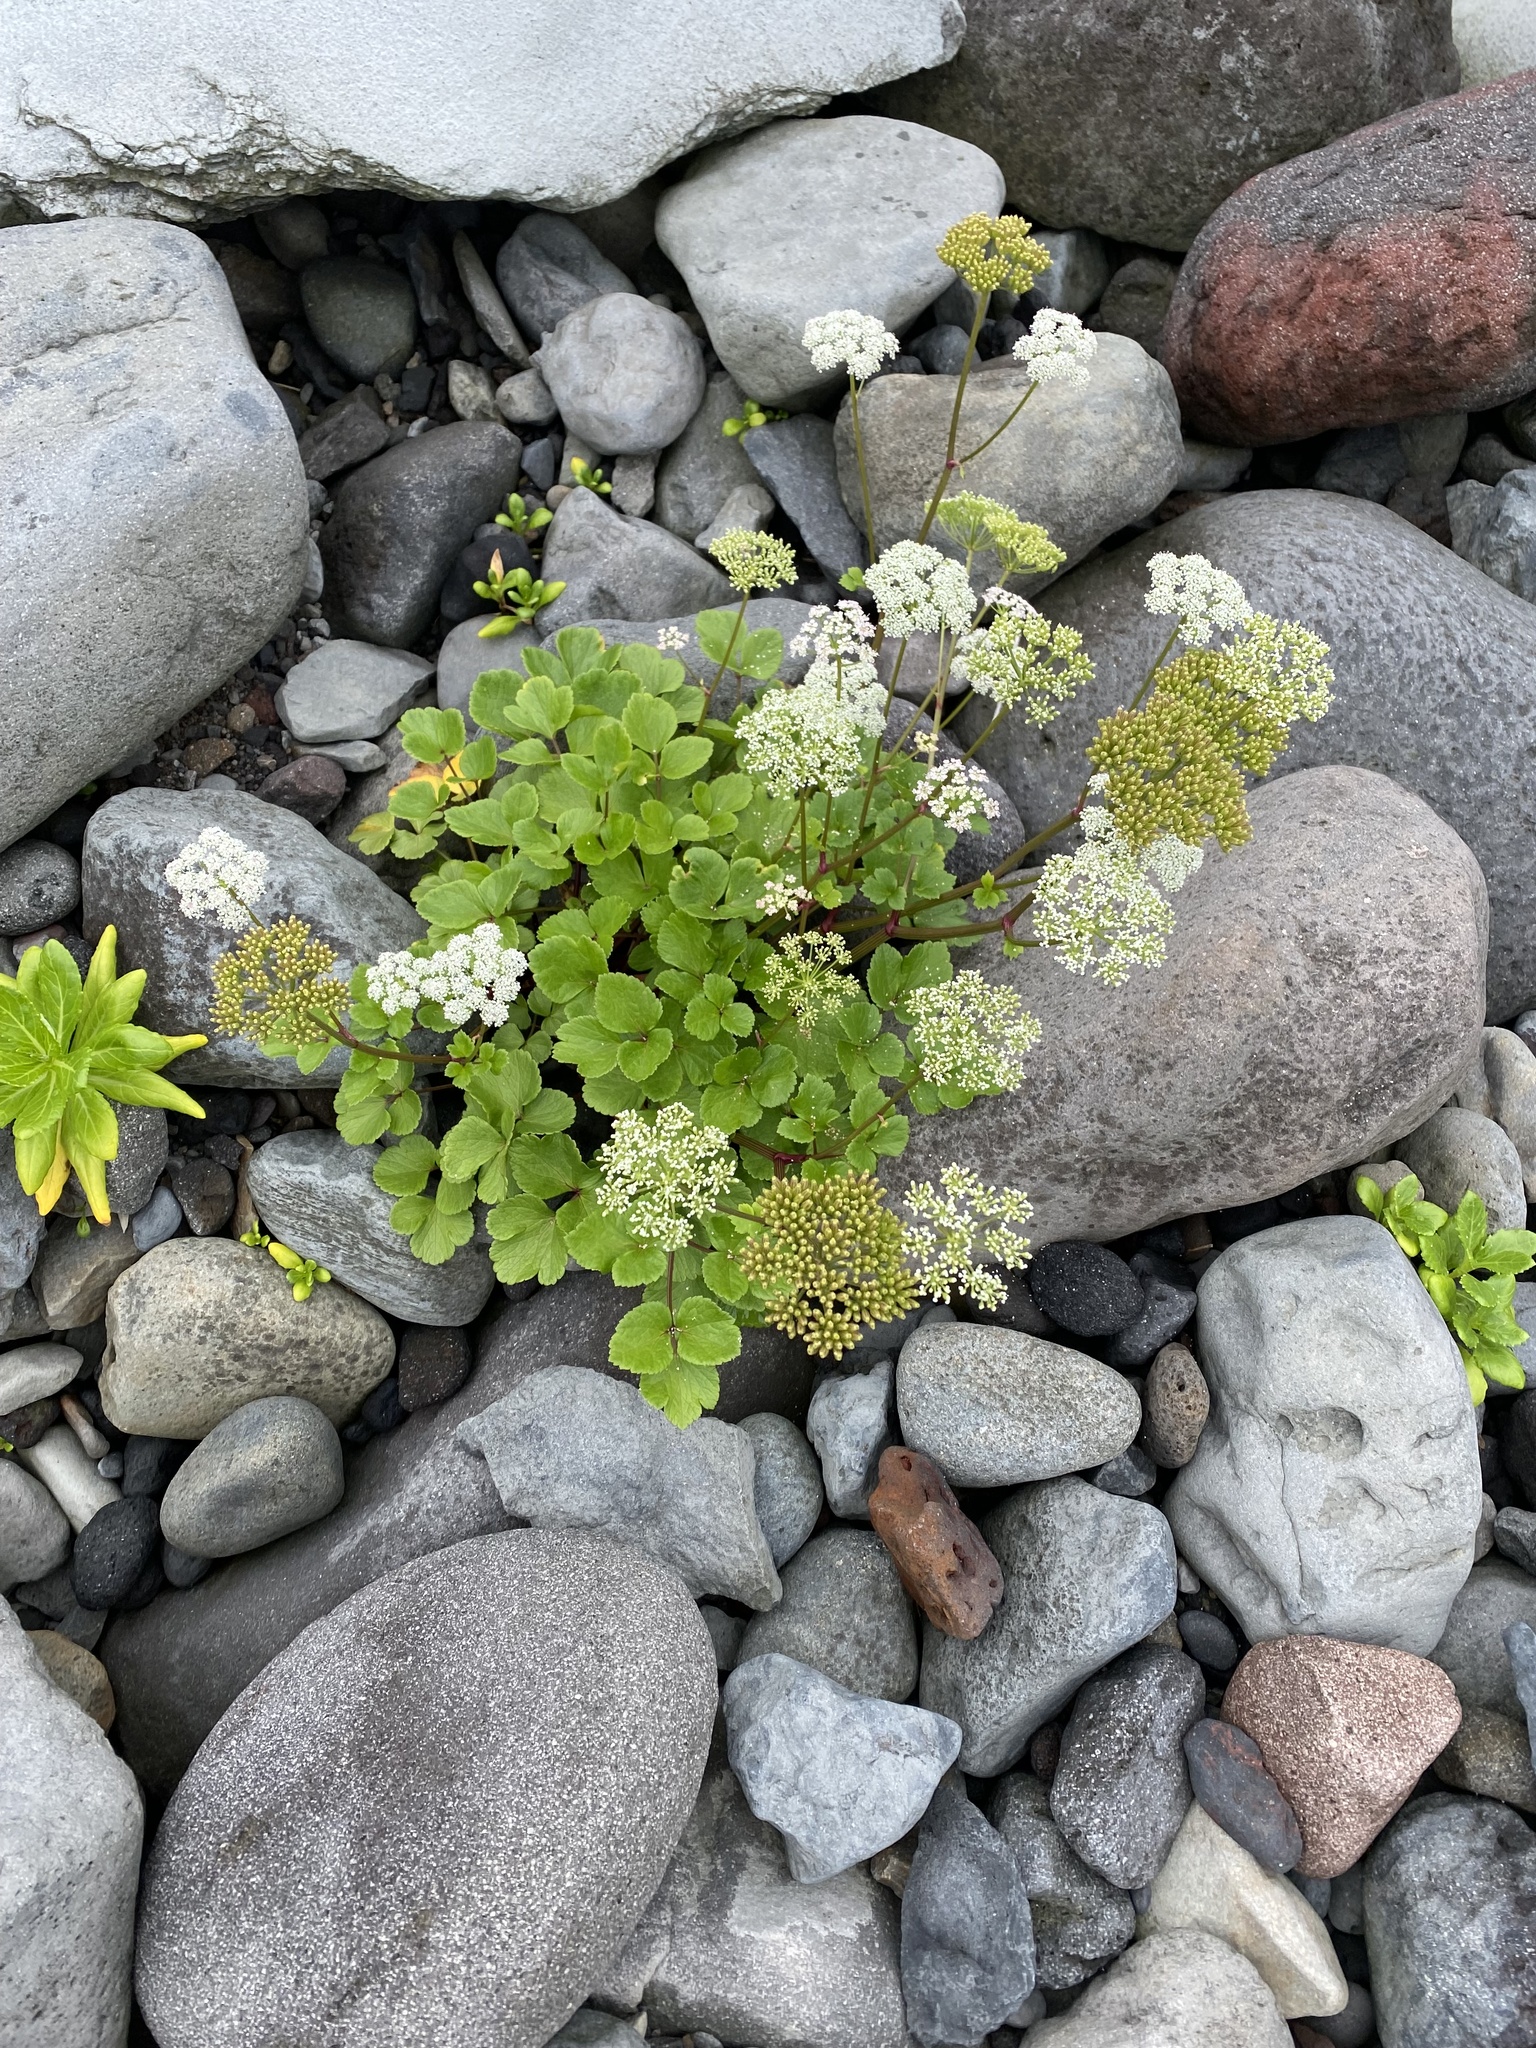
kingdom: Plantae
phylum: Tracheophyta
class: Magnoliopsida
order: Apiales
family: Apiaceae
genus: Ligusticum
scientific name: Ligusticum scothicum
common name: Beach lovage
